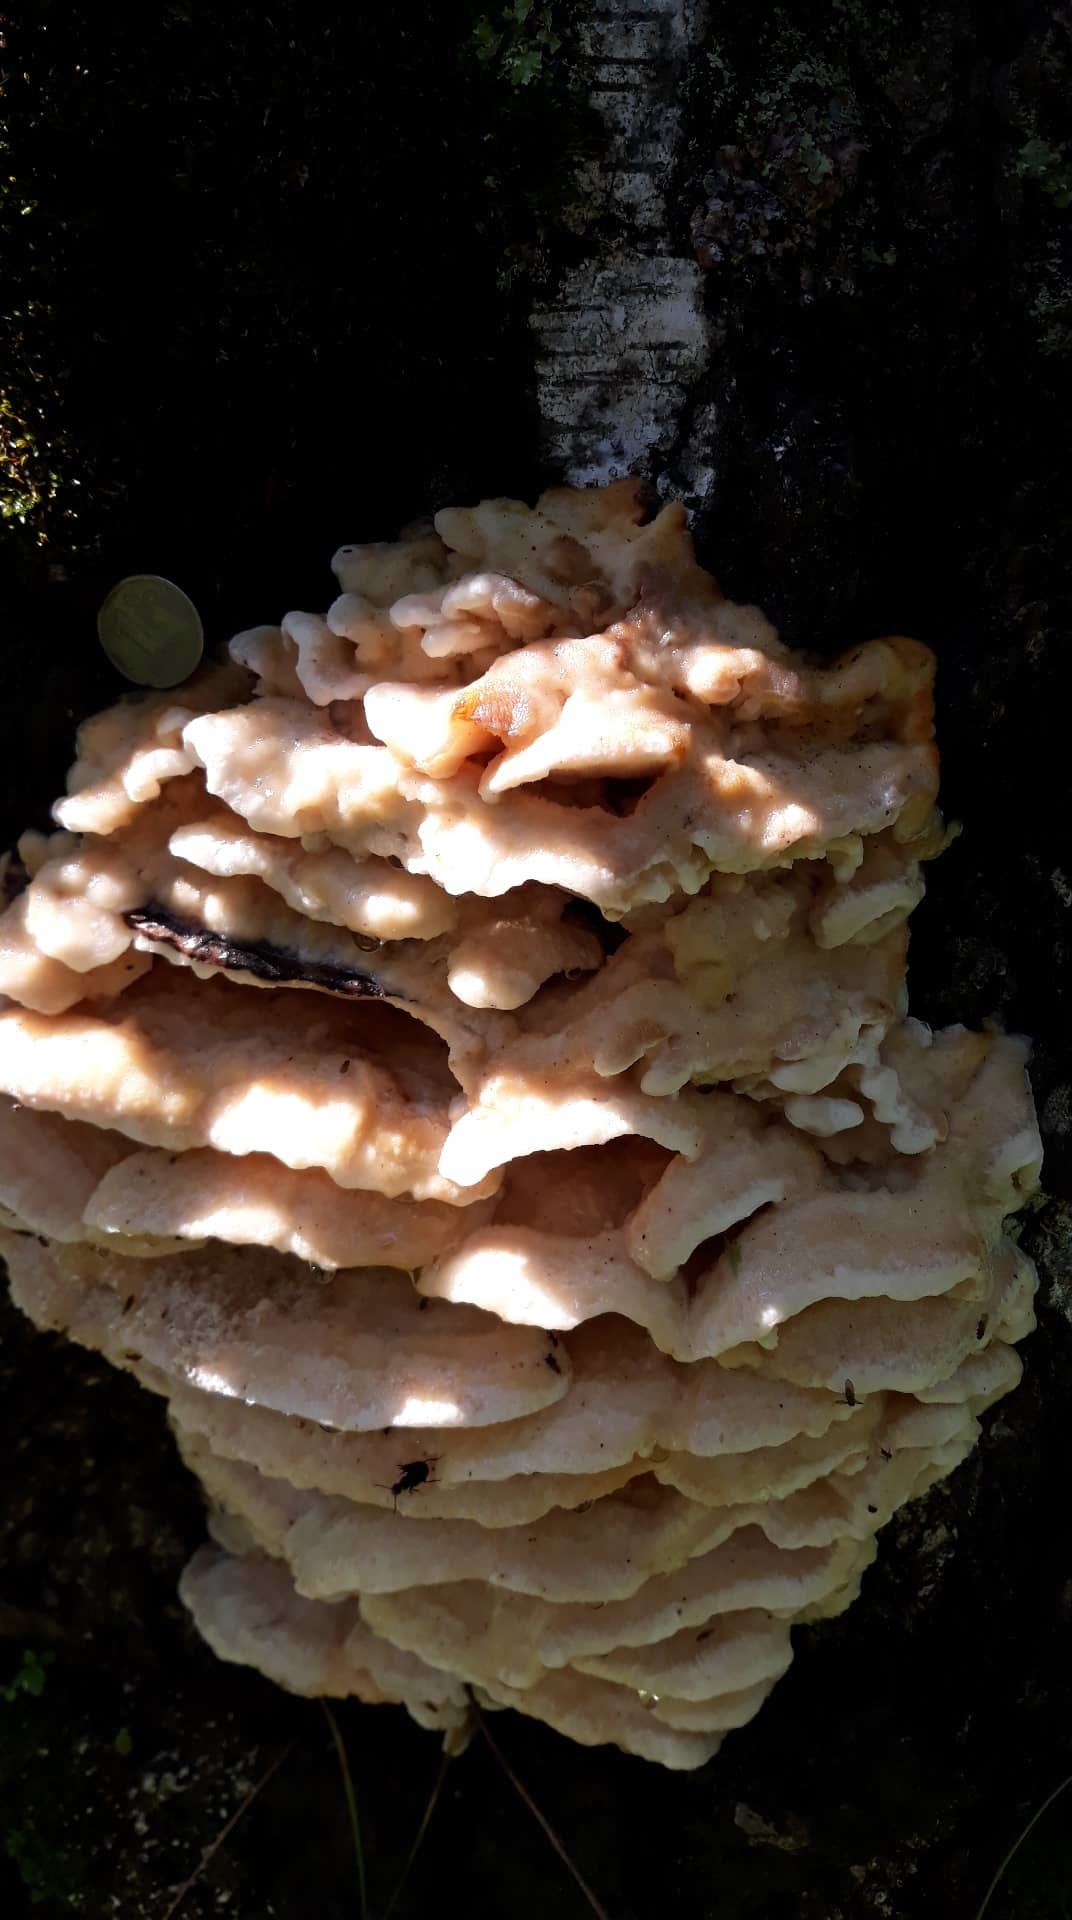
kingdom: Fungi
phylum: Basidiomycota
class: Agaricomycetes
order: Polyporales
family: Meruliaceae
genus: Climacodon
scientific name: Climacodon septentrionalis
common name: Northern tooth
